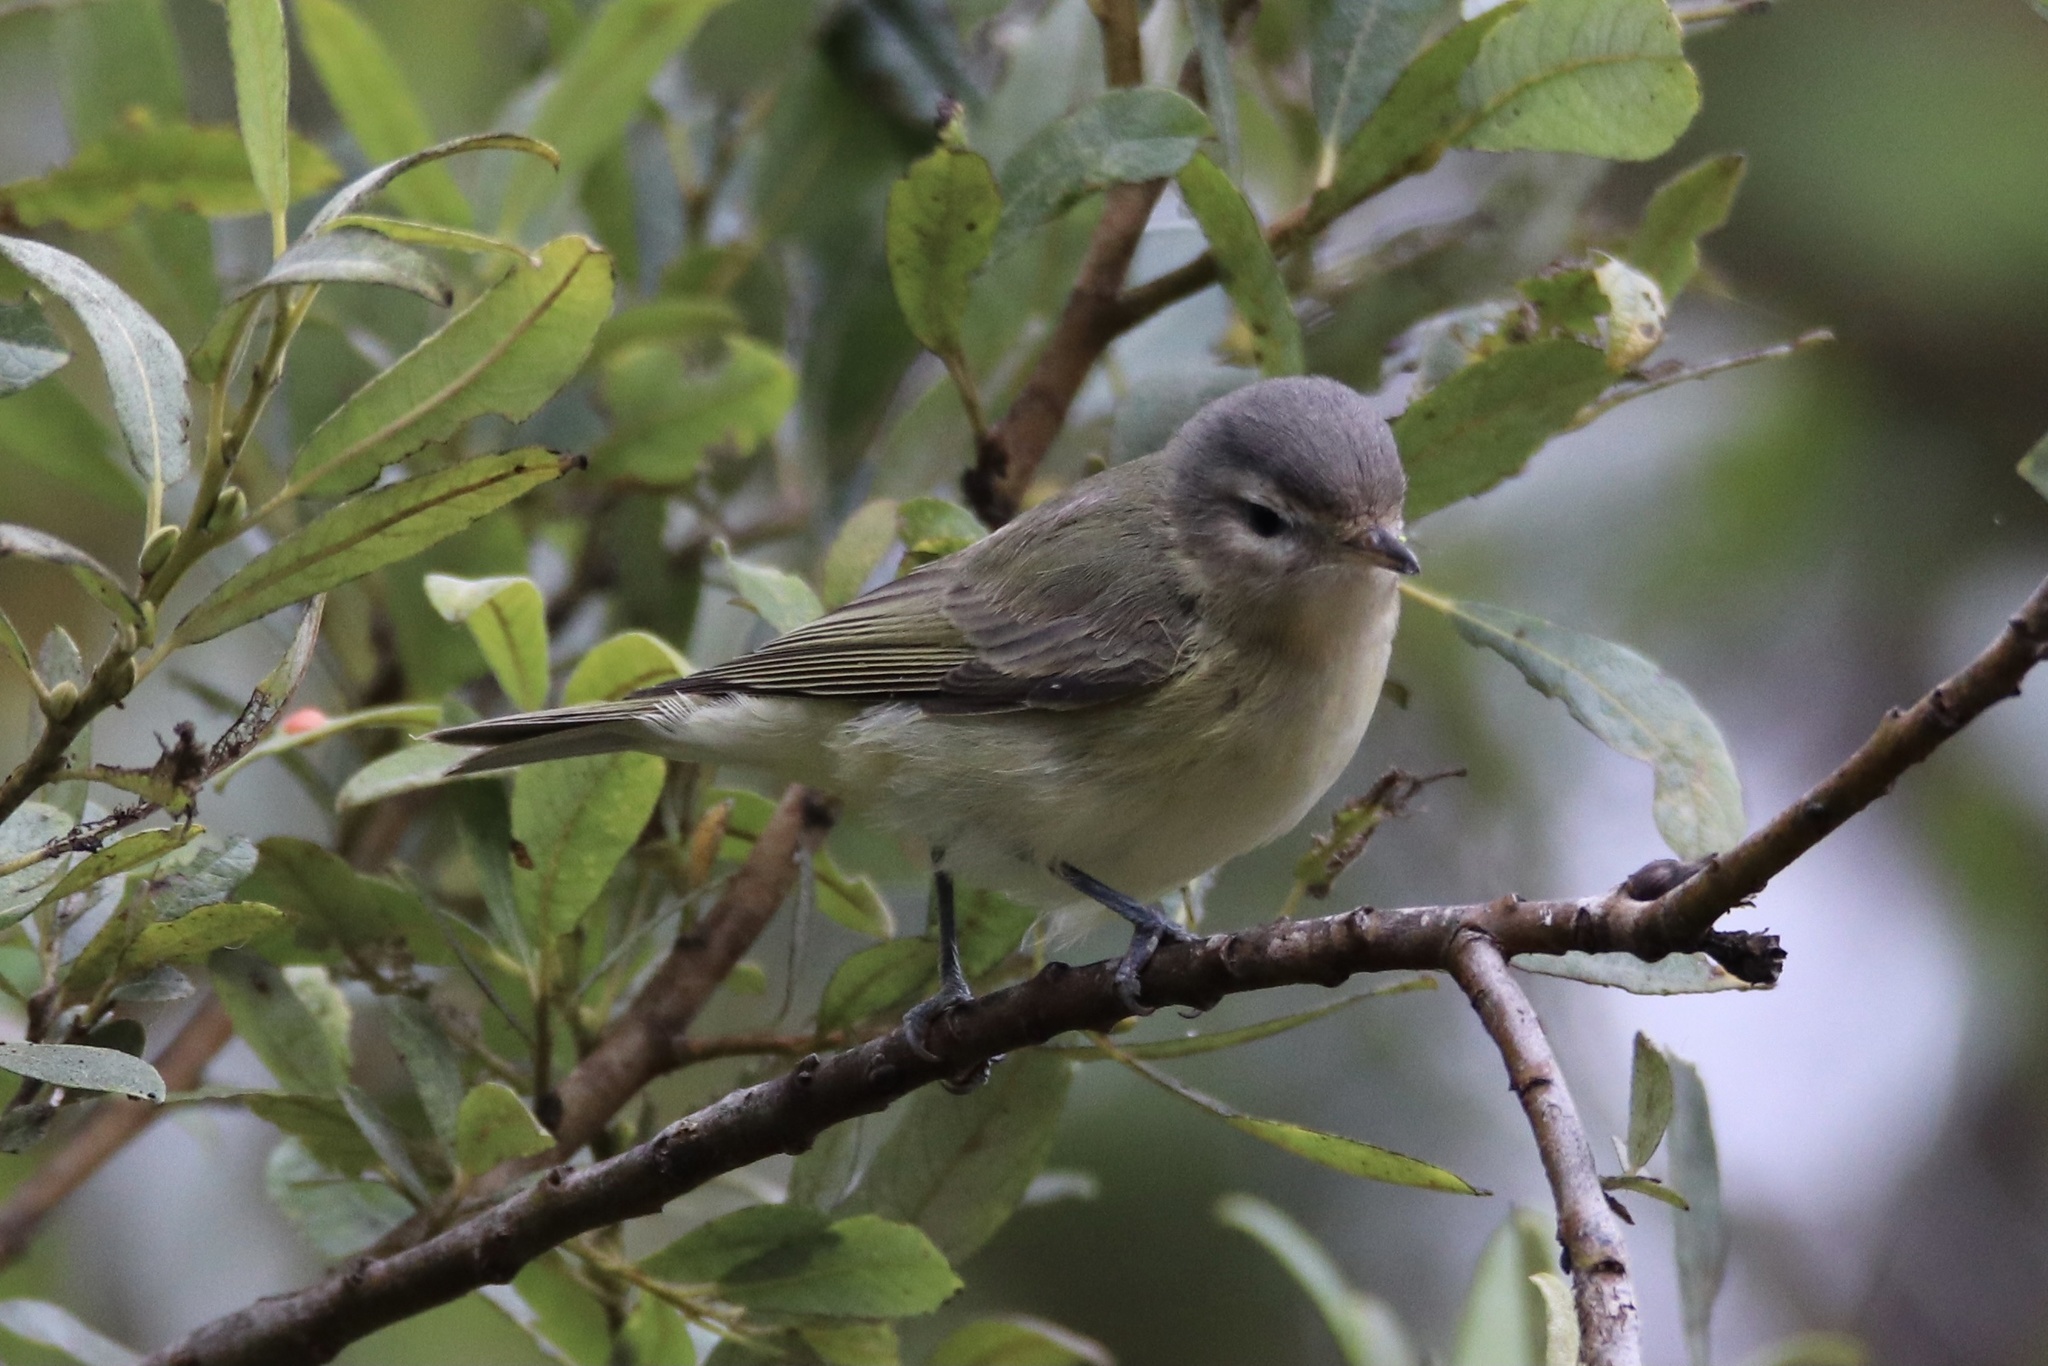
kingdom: Animalia
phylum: Chordata
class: Aves
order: Passeriformes
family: Vireonidae
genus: Vireo
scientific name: Vireo gilvus
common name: Warbling vireo
